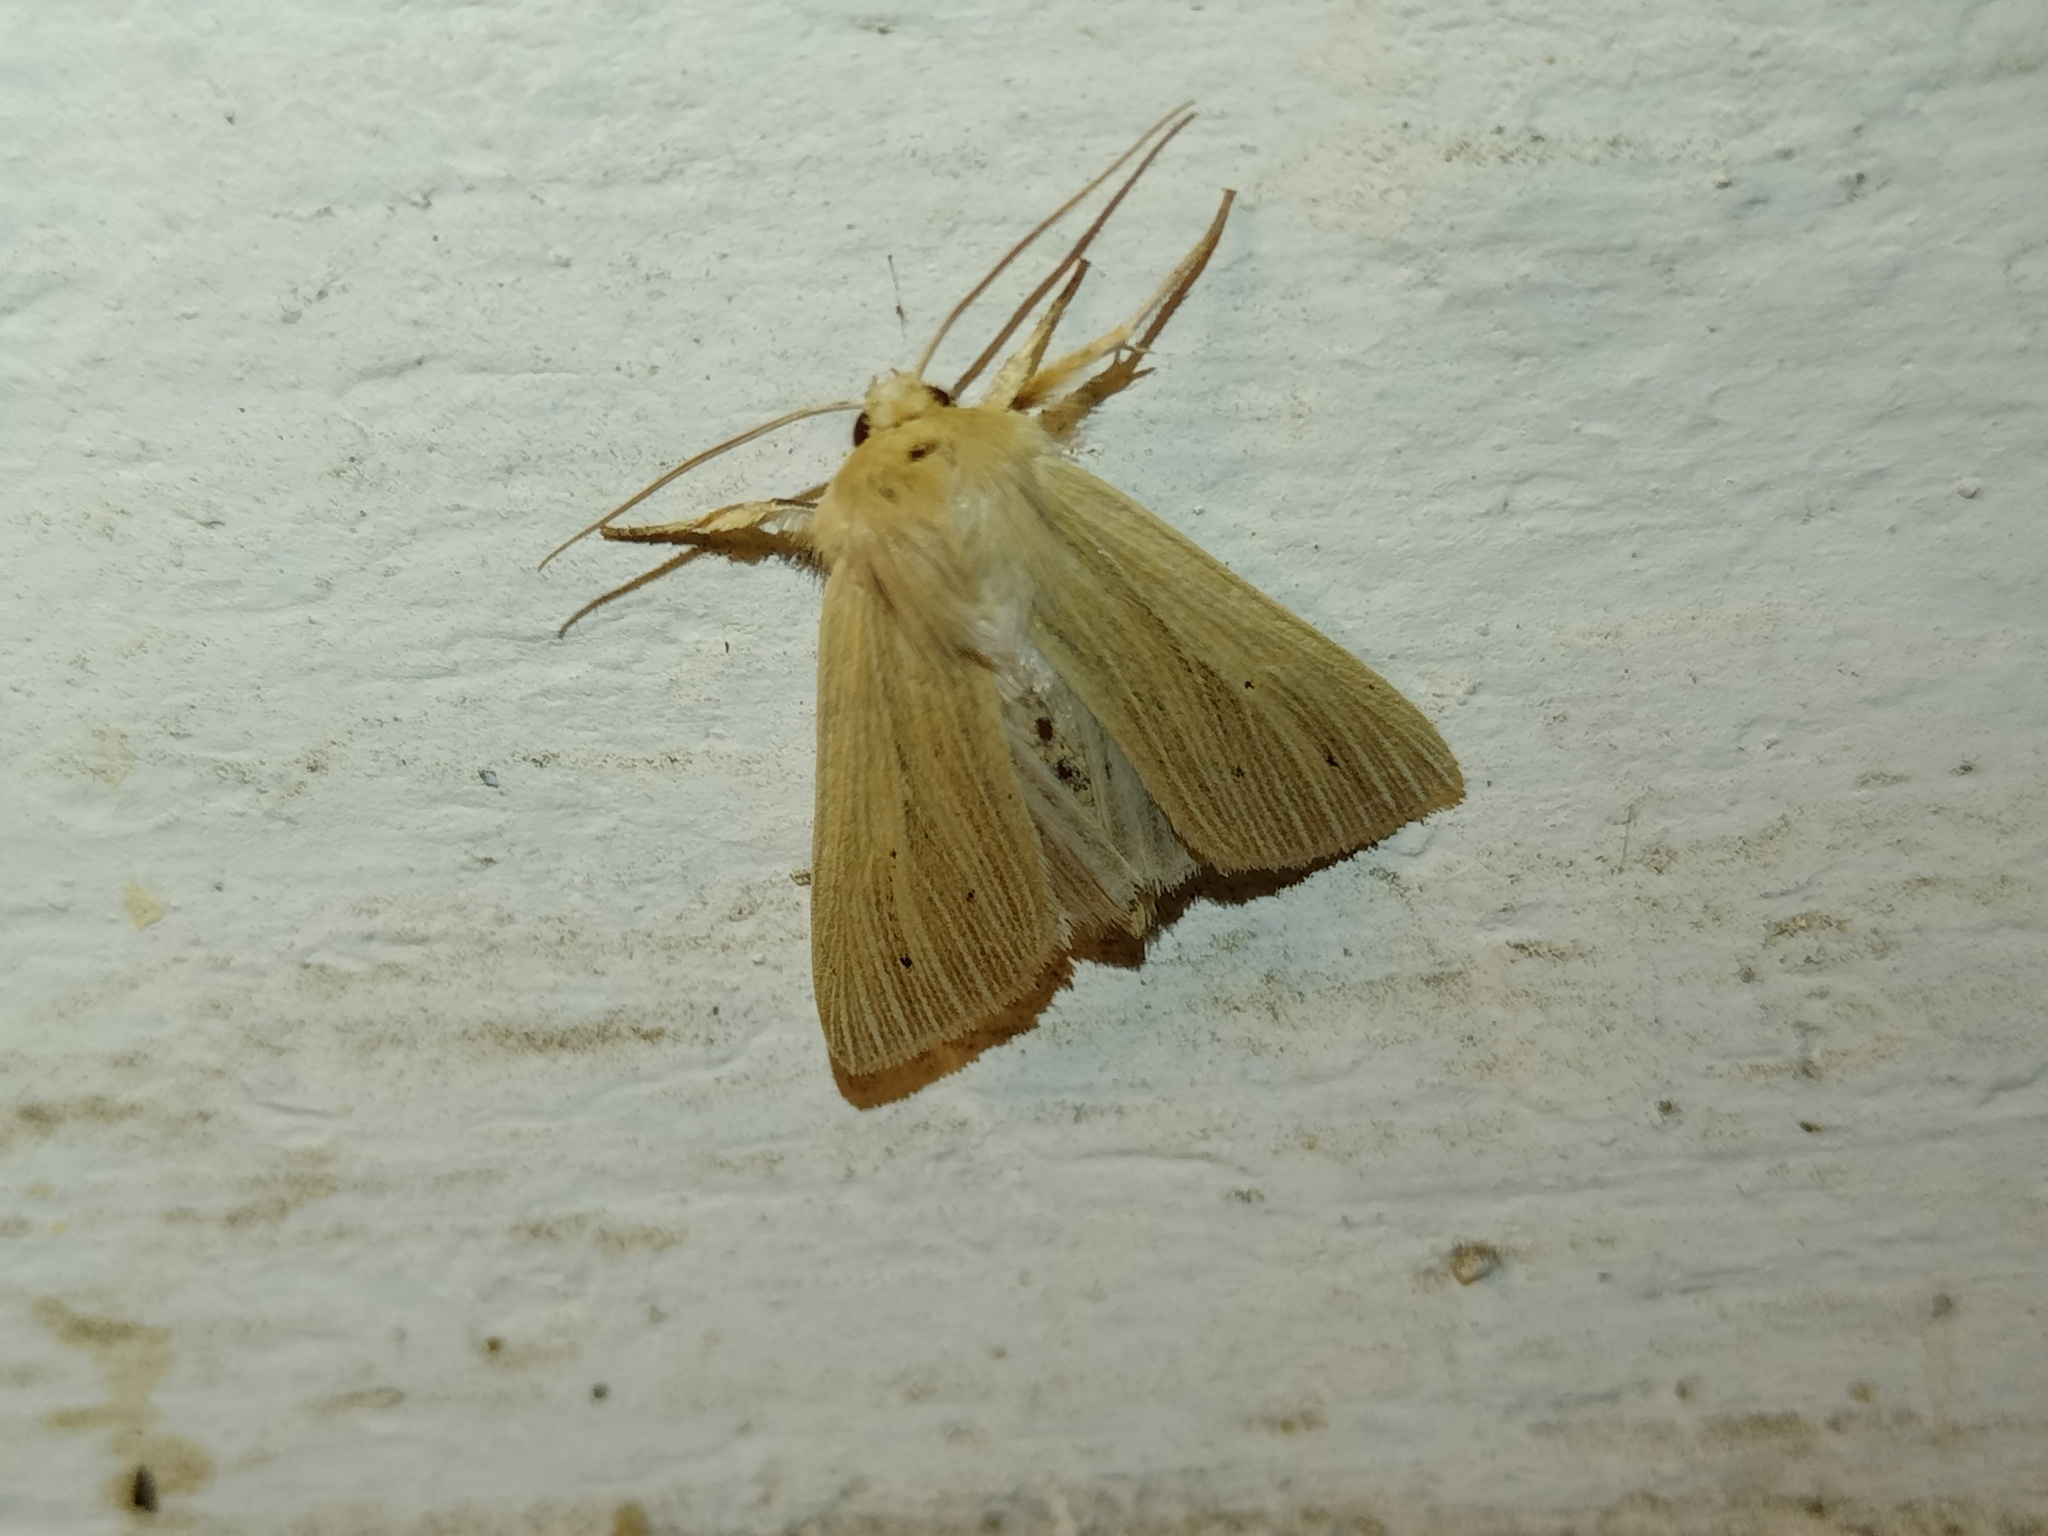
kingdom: Animalia
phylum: Arthropoda
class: Insecta
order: Lepidoptera
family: Noctuidae
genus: Mythimna
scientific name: Mythimna pallens
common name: Common wainscot
